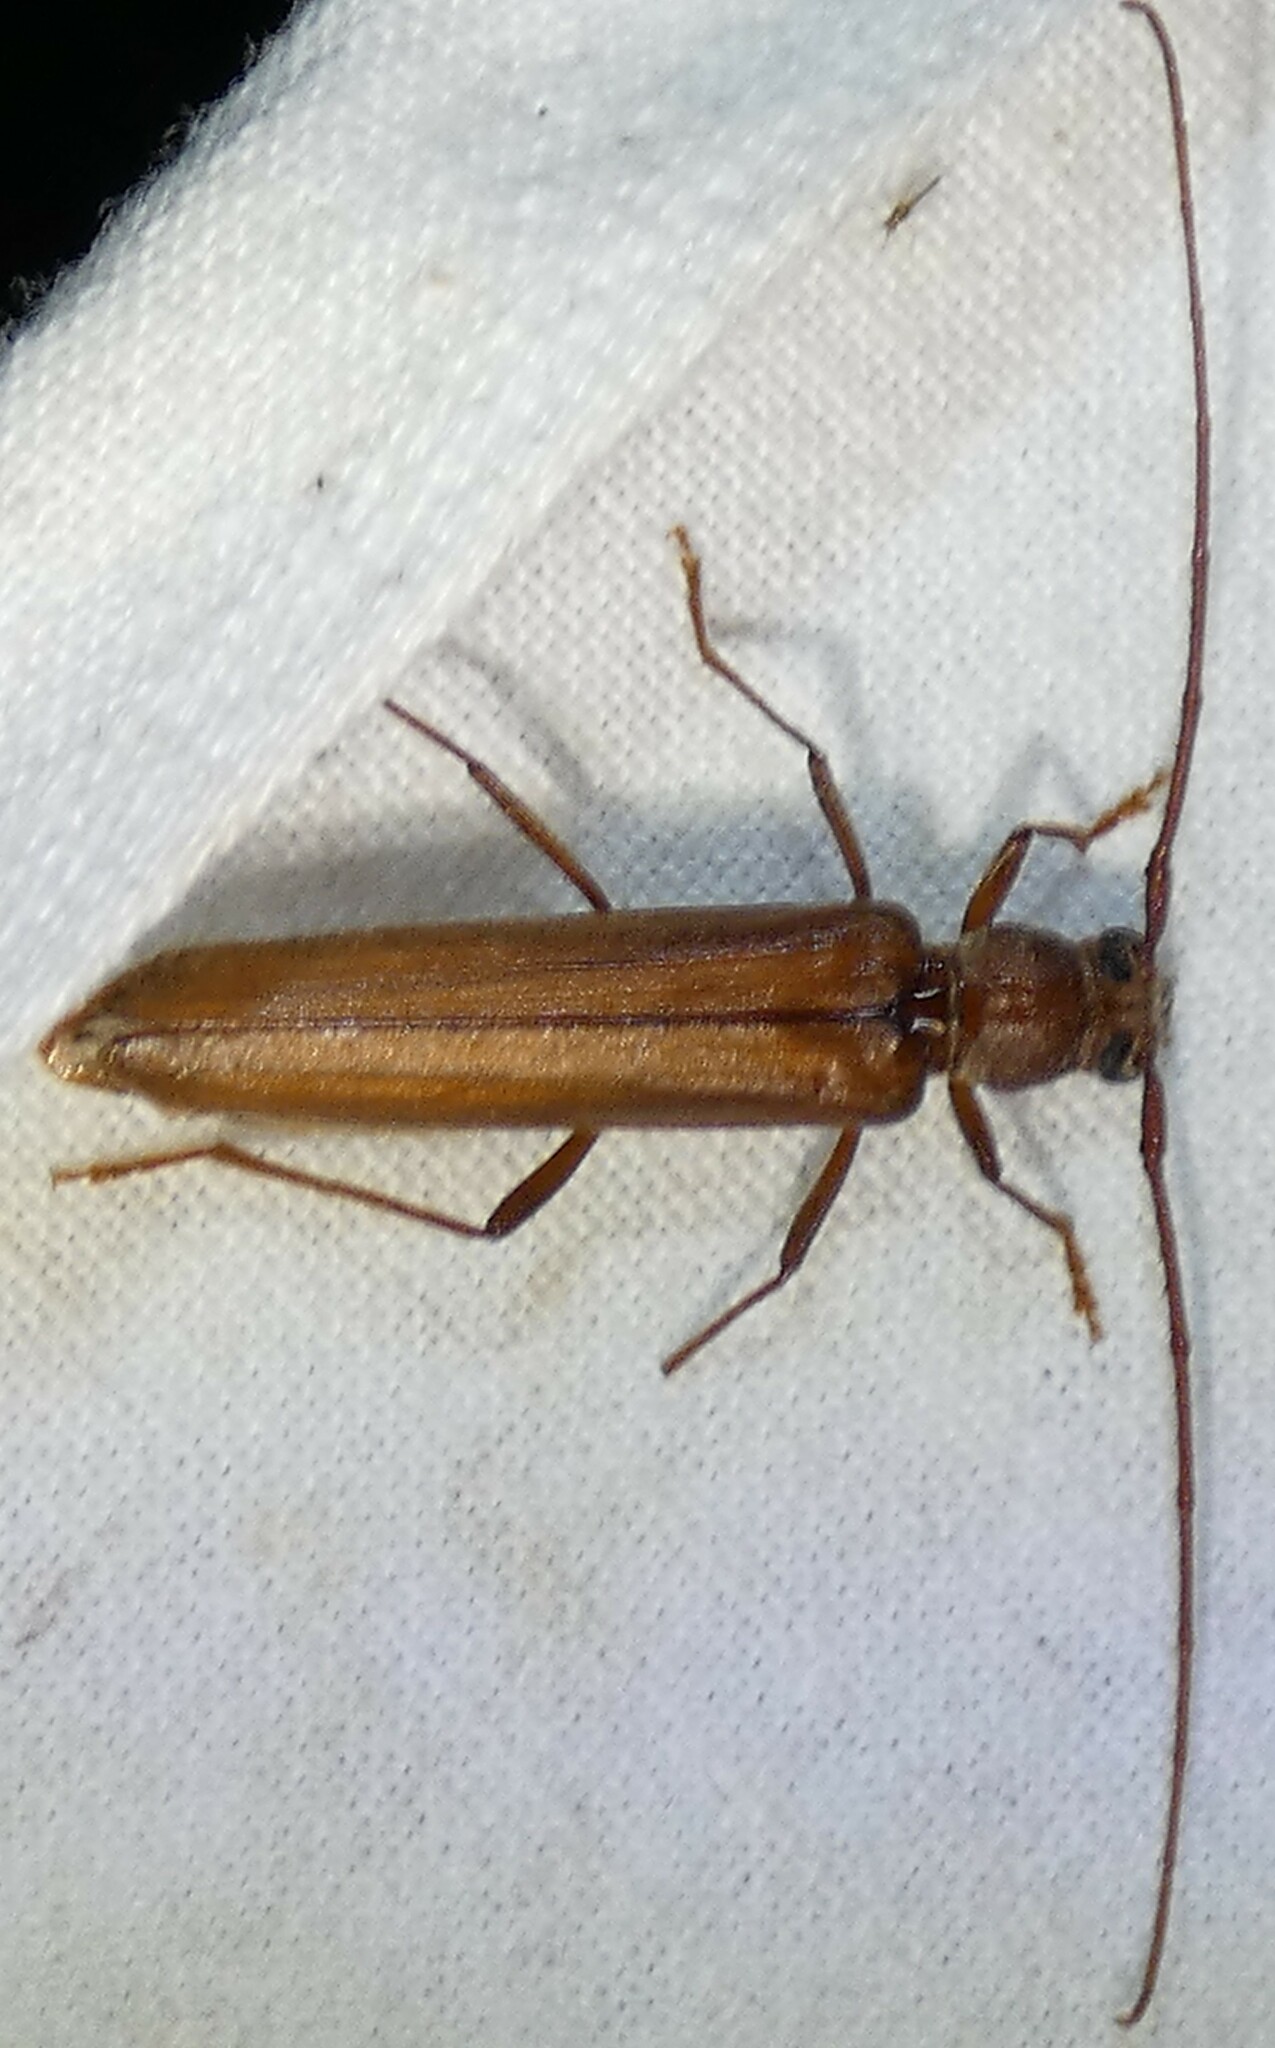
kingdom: Animalia
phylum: Arthropoda
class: Insecta
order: Coleoptera
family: Cerambycidae
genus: Oeme
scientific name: Oeme rigida
